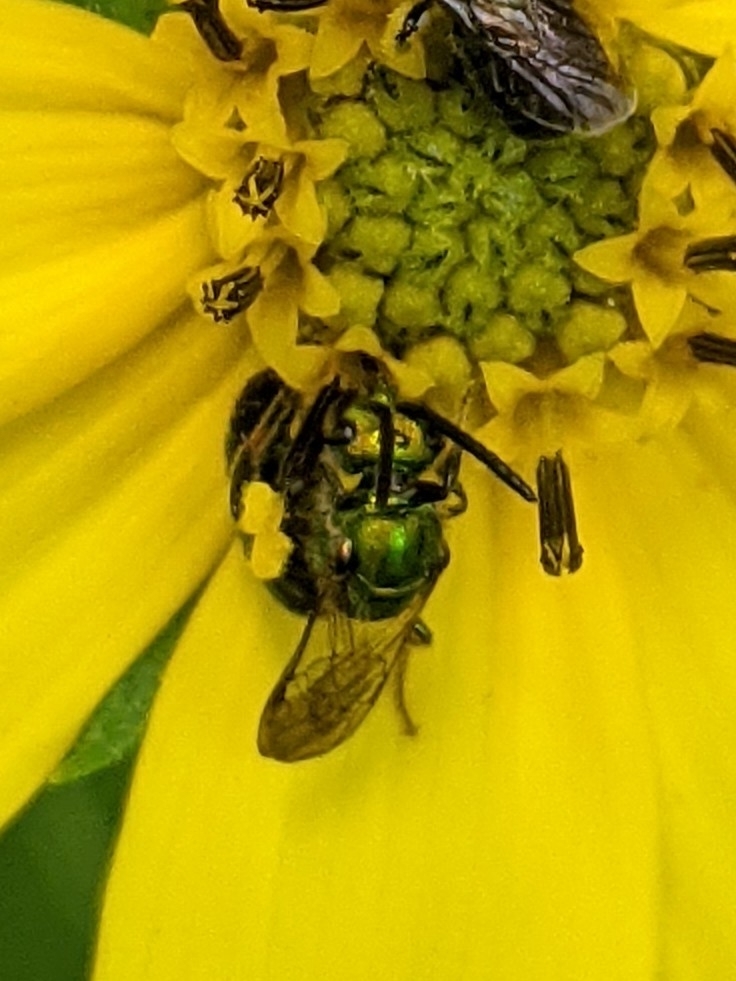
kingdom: Animalia
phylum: Arthropoda
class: Insecta
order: Hymenoptera
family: Halictidae
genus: Augochlora
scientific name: Augochlora pura
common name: Pure green sweat bee
